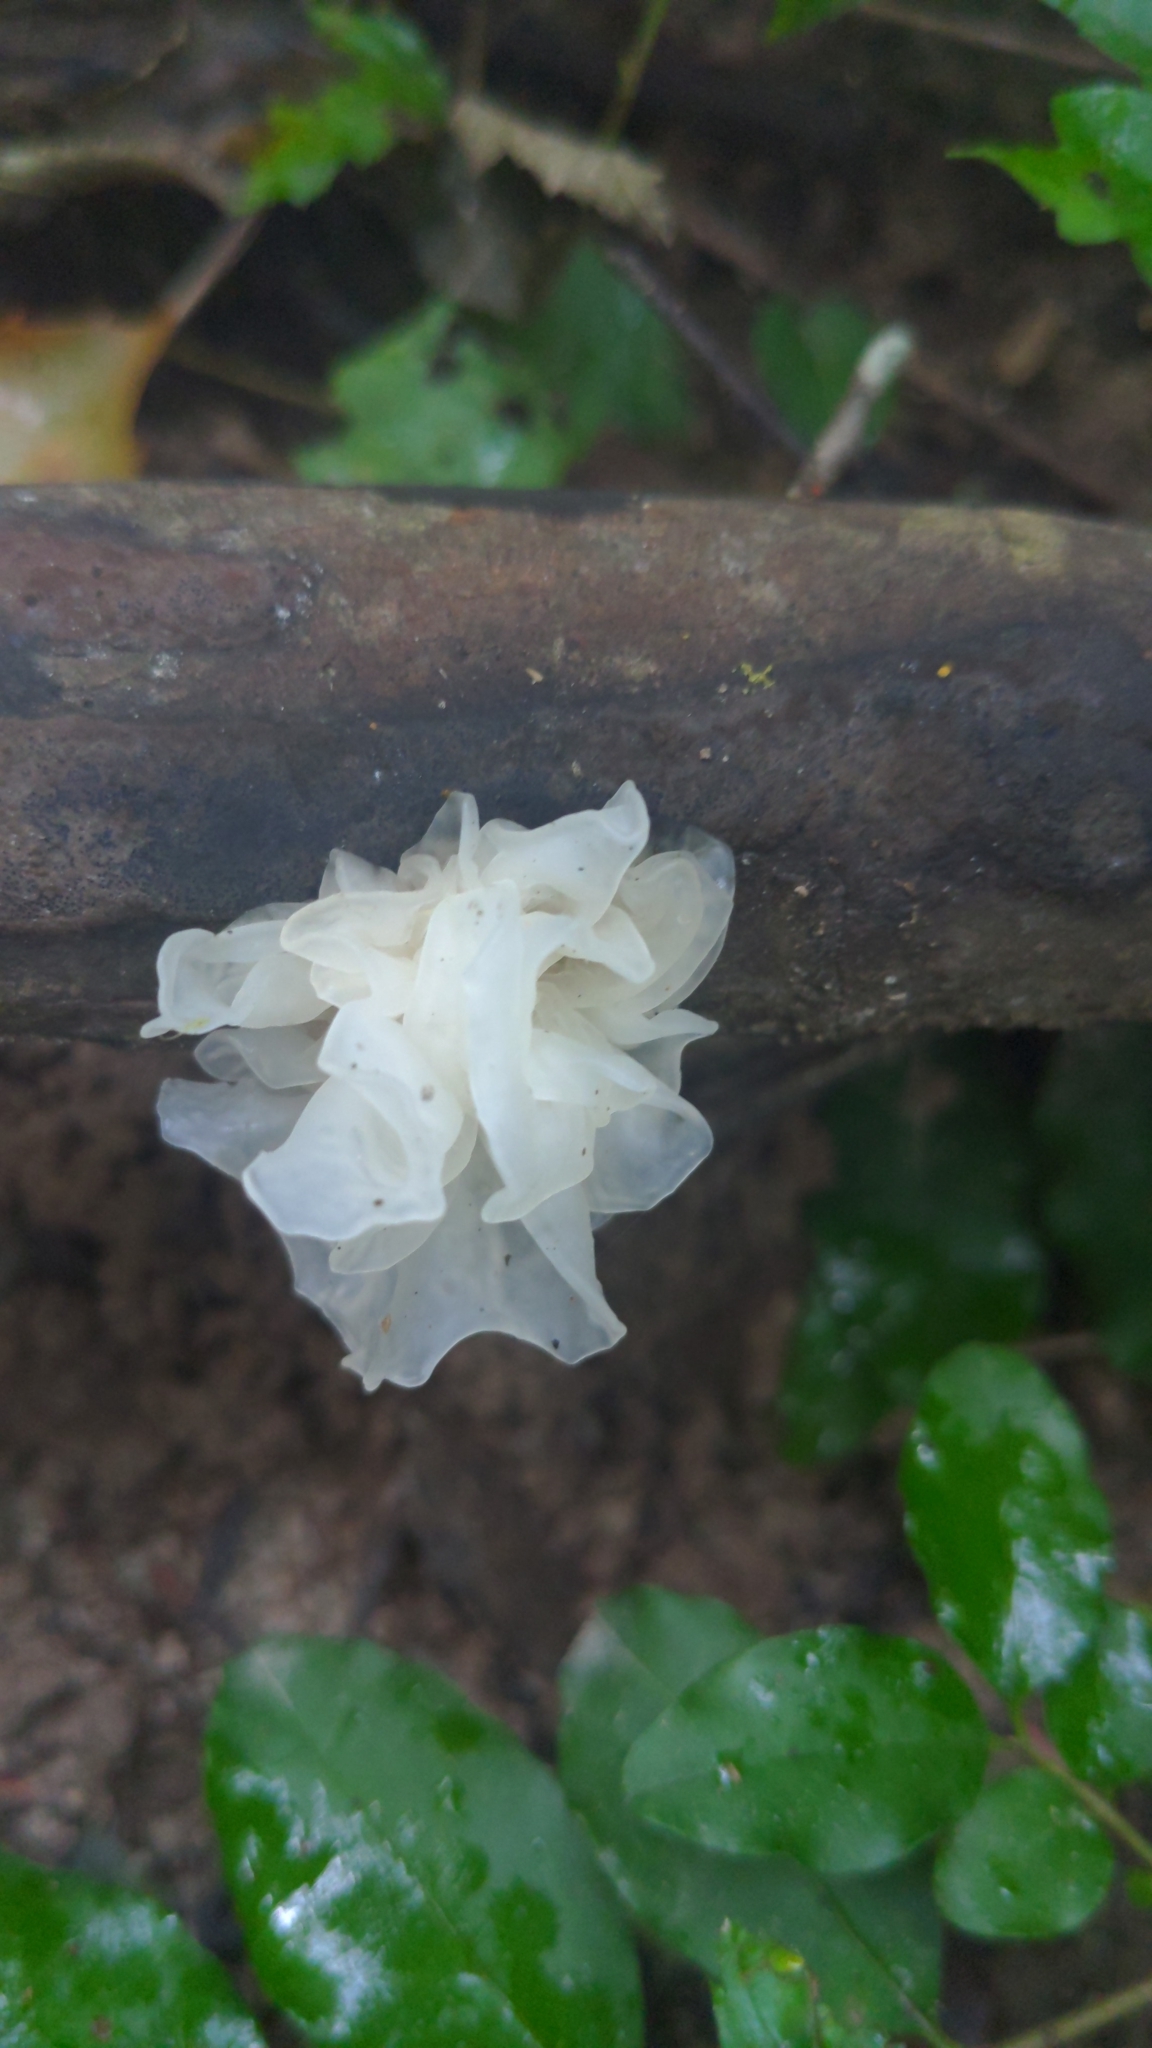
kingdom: Fungi
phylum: Basidiomycota
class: Tremellomycetes
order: Tremellales
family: Tremellaceae
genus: Tremella
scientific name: Tremella fuciformis
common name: Snow fungus
